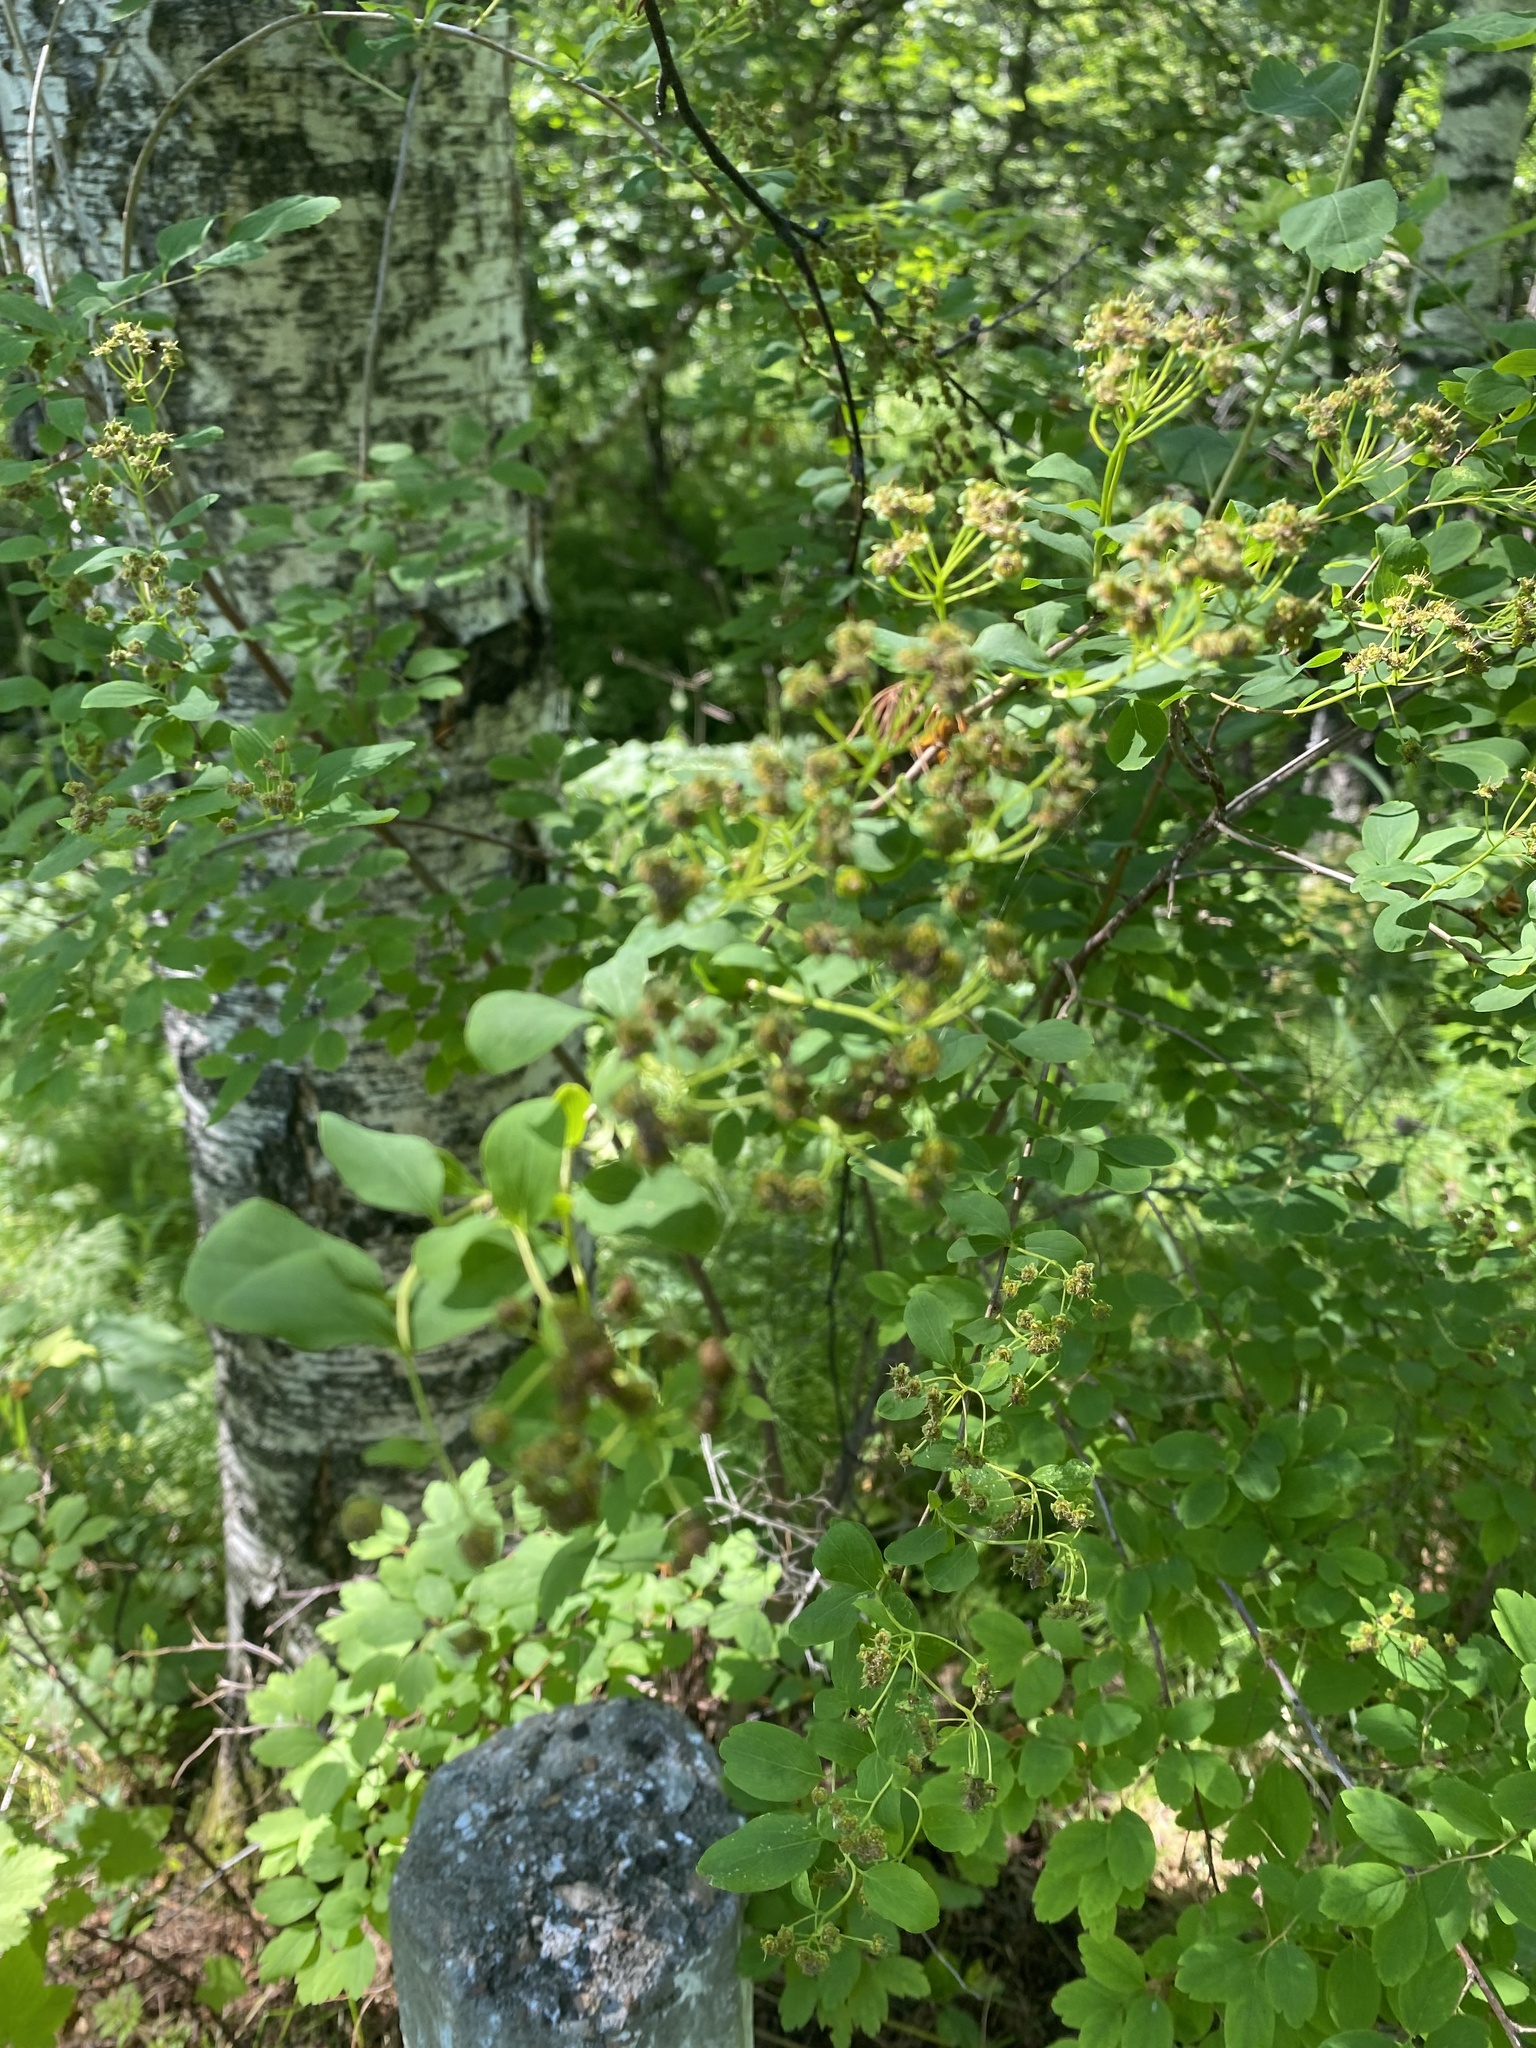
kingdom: Plantae
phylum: Tracheophyta
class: Magnoliopsida
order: Rosales
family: Rosaceae
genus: Spiraea
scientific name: Spiraea media
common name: Russian spiraea
